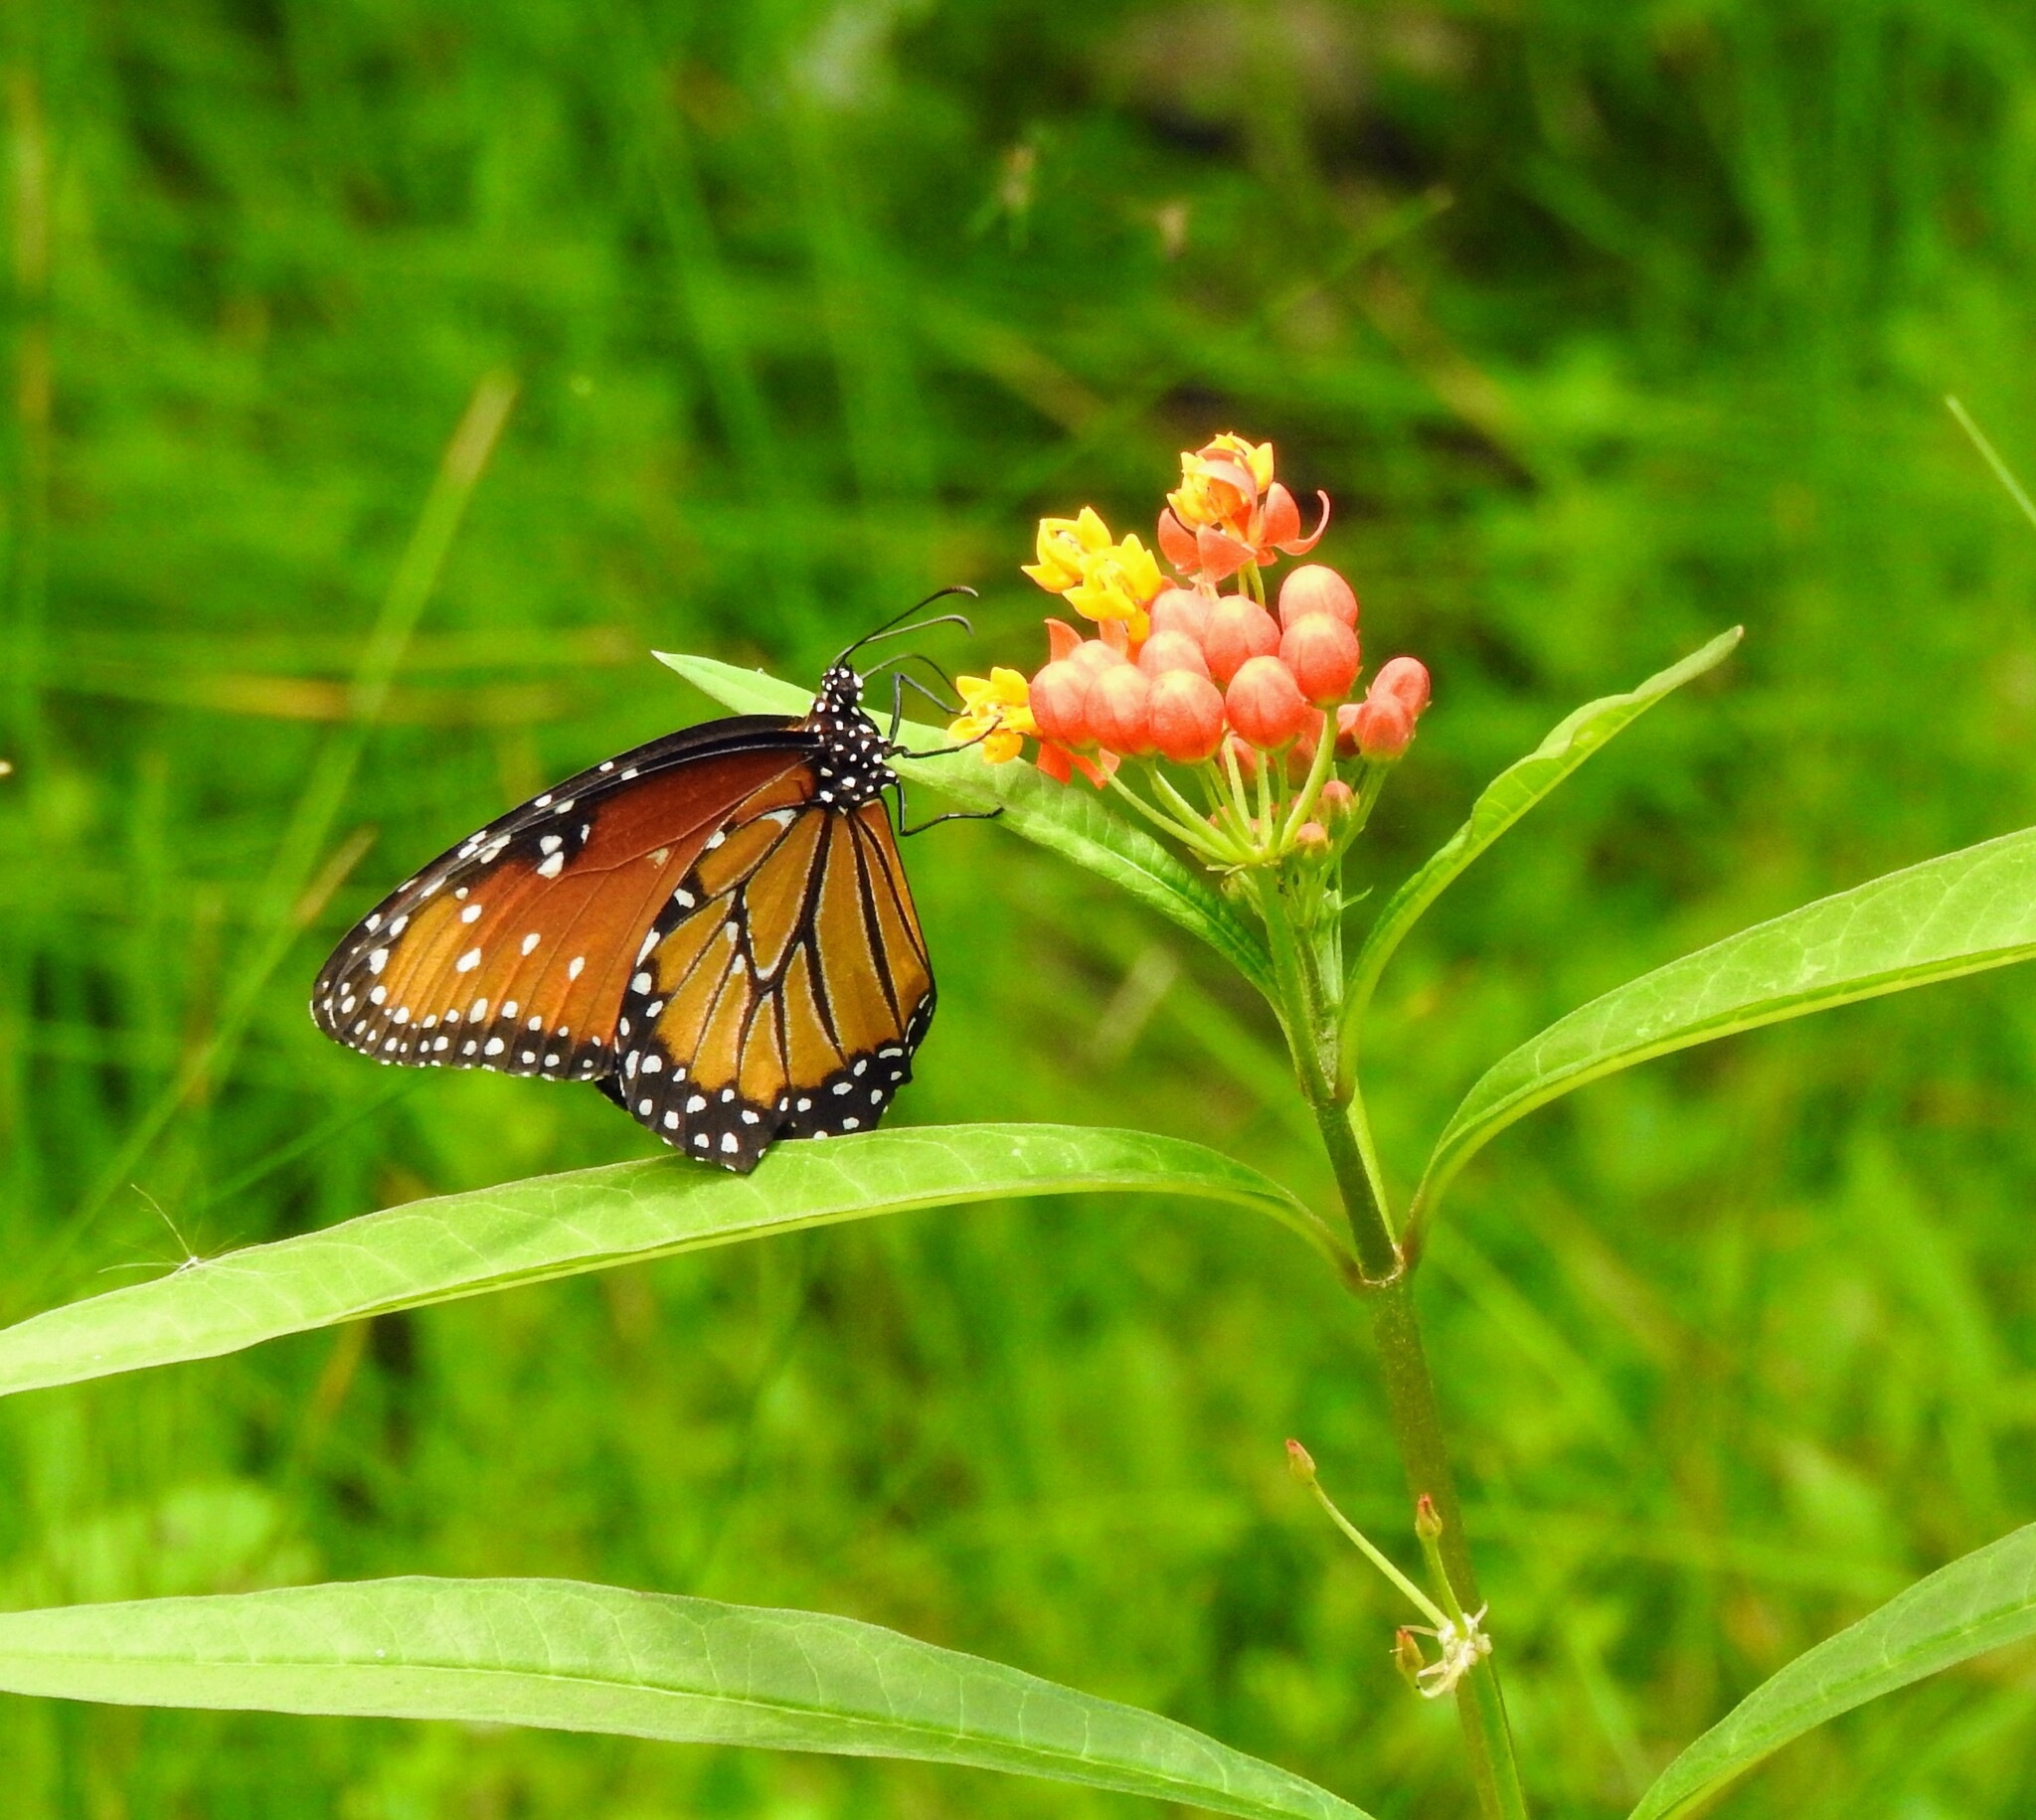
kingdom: Animalia
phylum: Arthropoda
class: Insecta
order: Lepidoptera
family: Nymphalidae
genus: Danaus
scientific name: Danaus gilippus
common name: Queen
